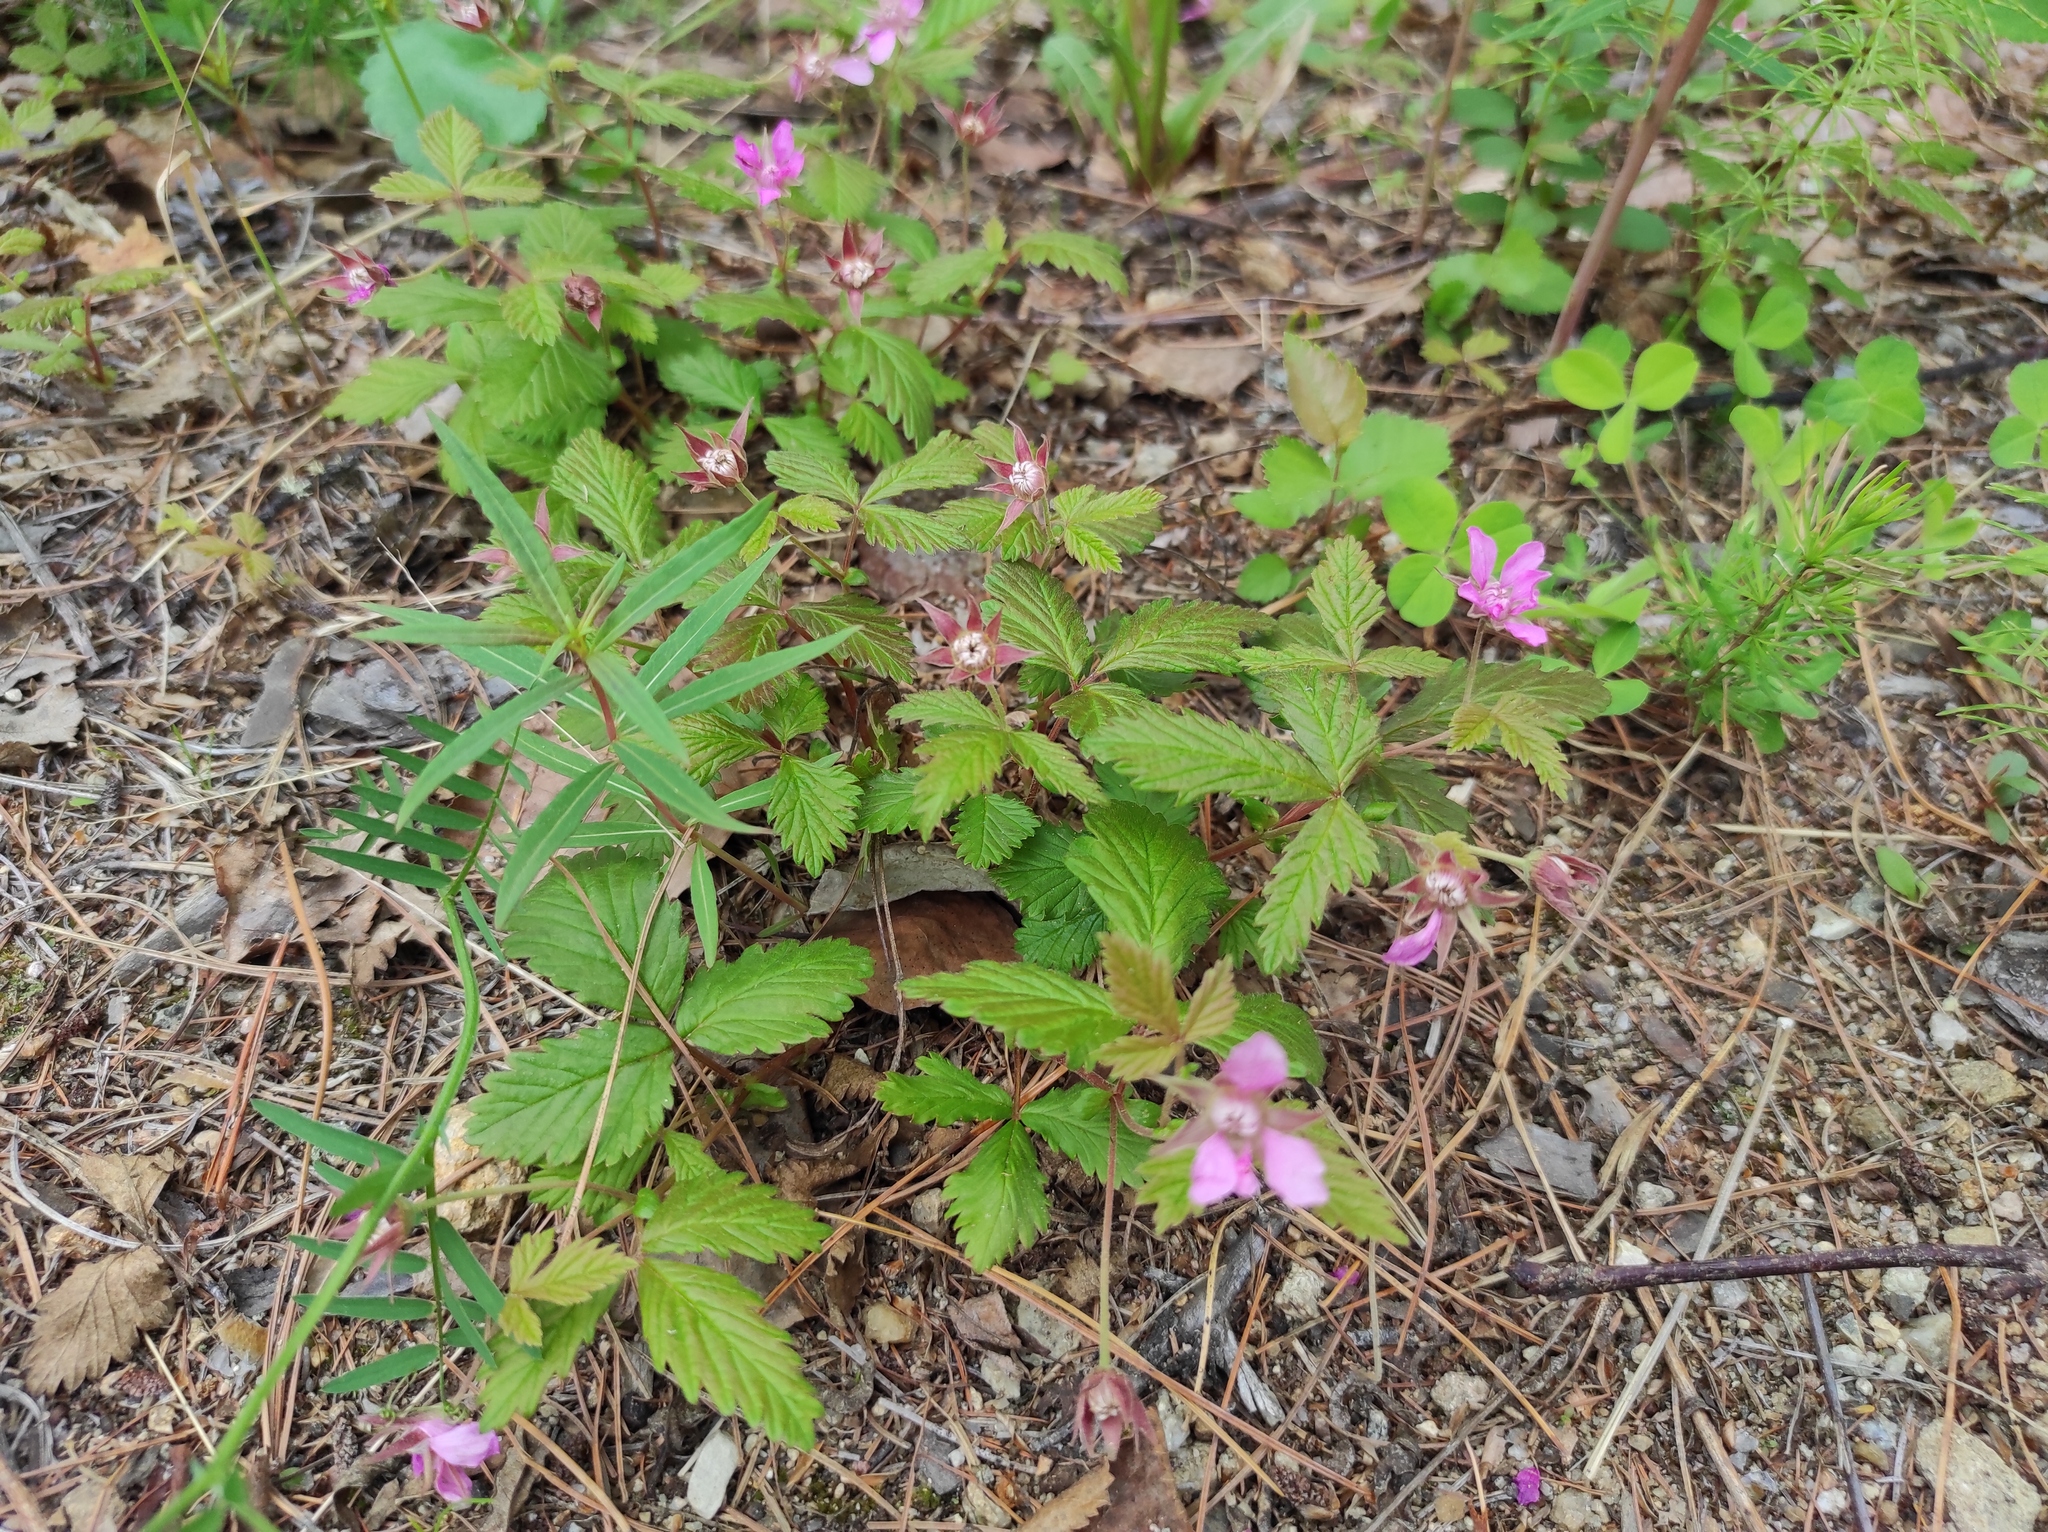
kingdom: Plantae
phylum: Tracheophyta
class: Magnoliopsida
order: Myrtales
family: Onagraceae
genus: Chamaenerion
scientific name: Chamaenerion angustifolium
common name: Fireweed
